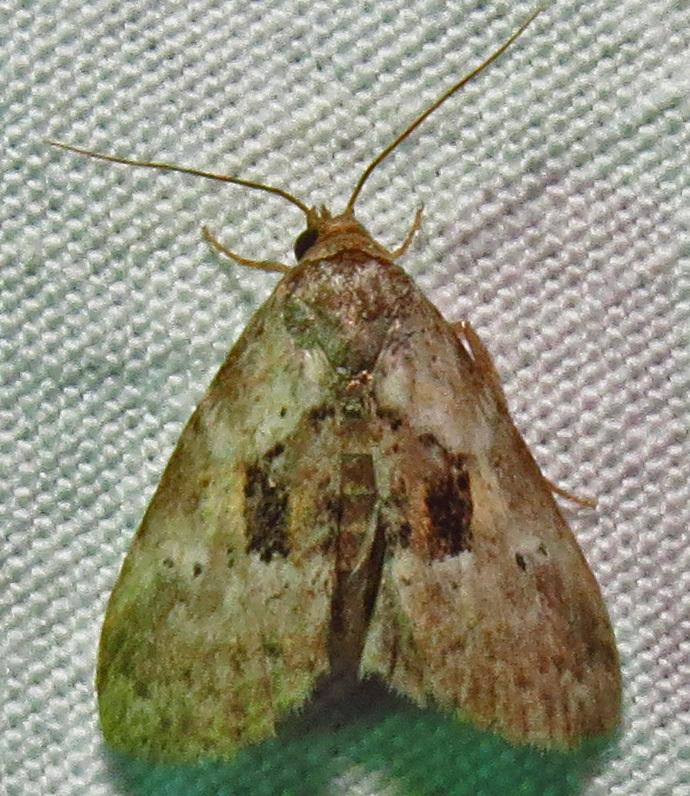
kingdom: Animalia
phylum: Arthropoda
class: Insecta
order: Lepidoptera
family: Erebidae
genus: Hyperstrotia
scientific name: Hyperstrotia secta
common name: Black-patched graylet
